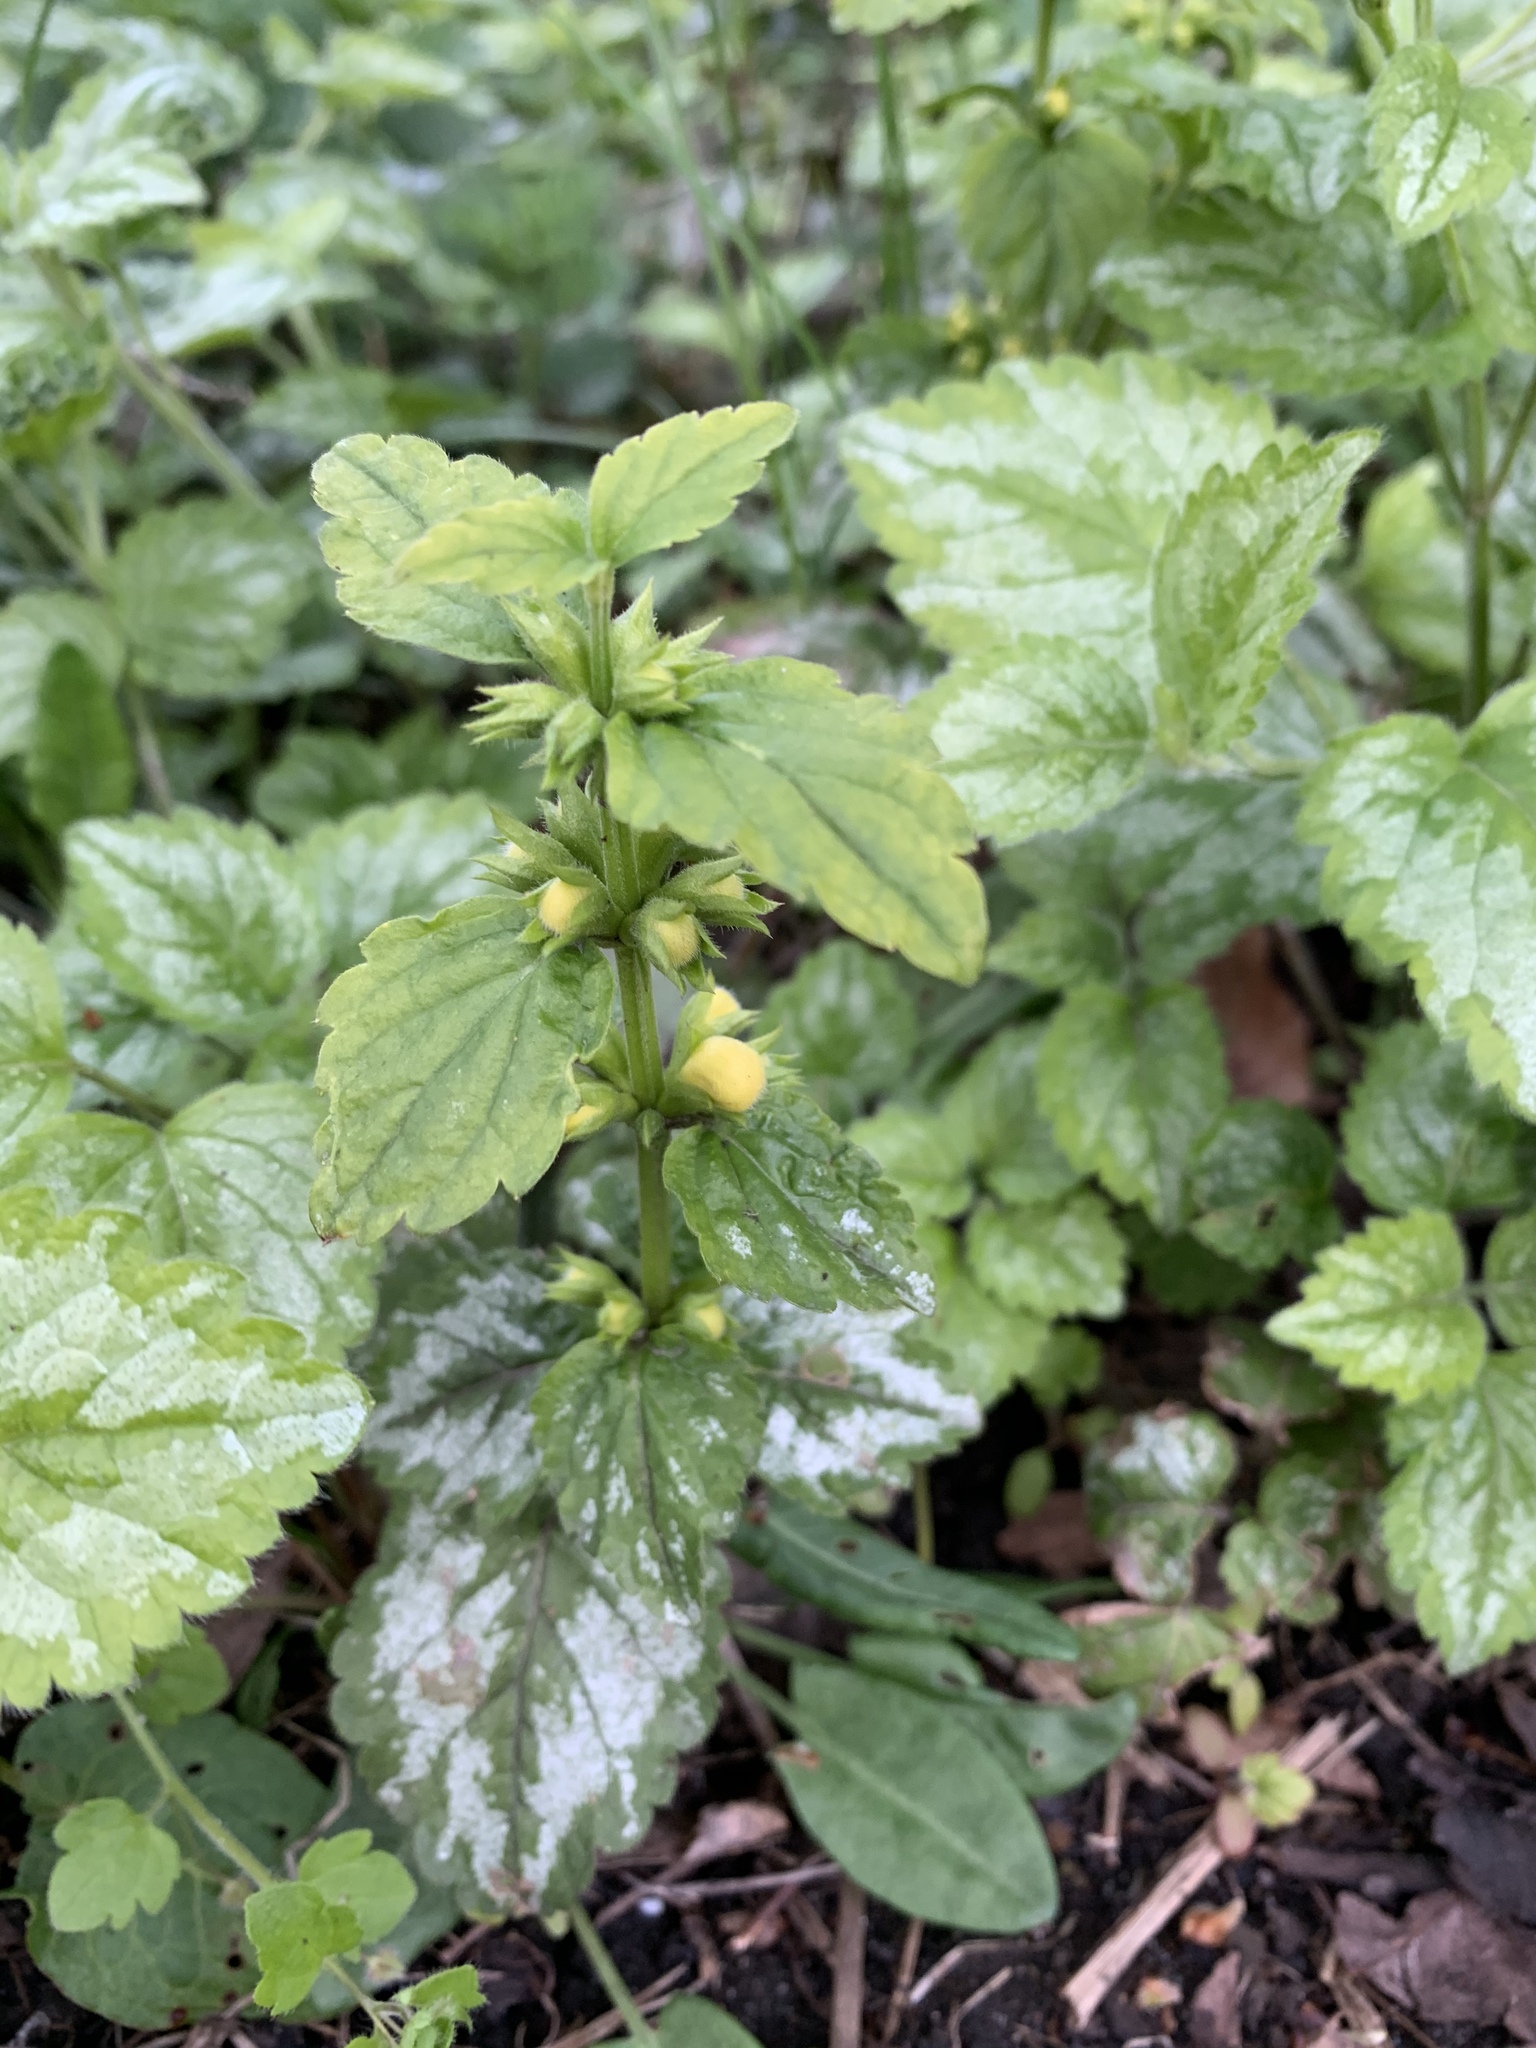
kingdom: Plantae
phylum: Tracheophyta
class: Magnoliopsida
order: Lamiales
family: Lamiaceae
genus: Lamium
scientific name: Lamium galeobdolon
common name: Yellow archangel
